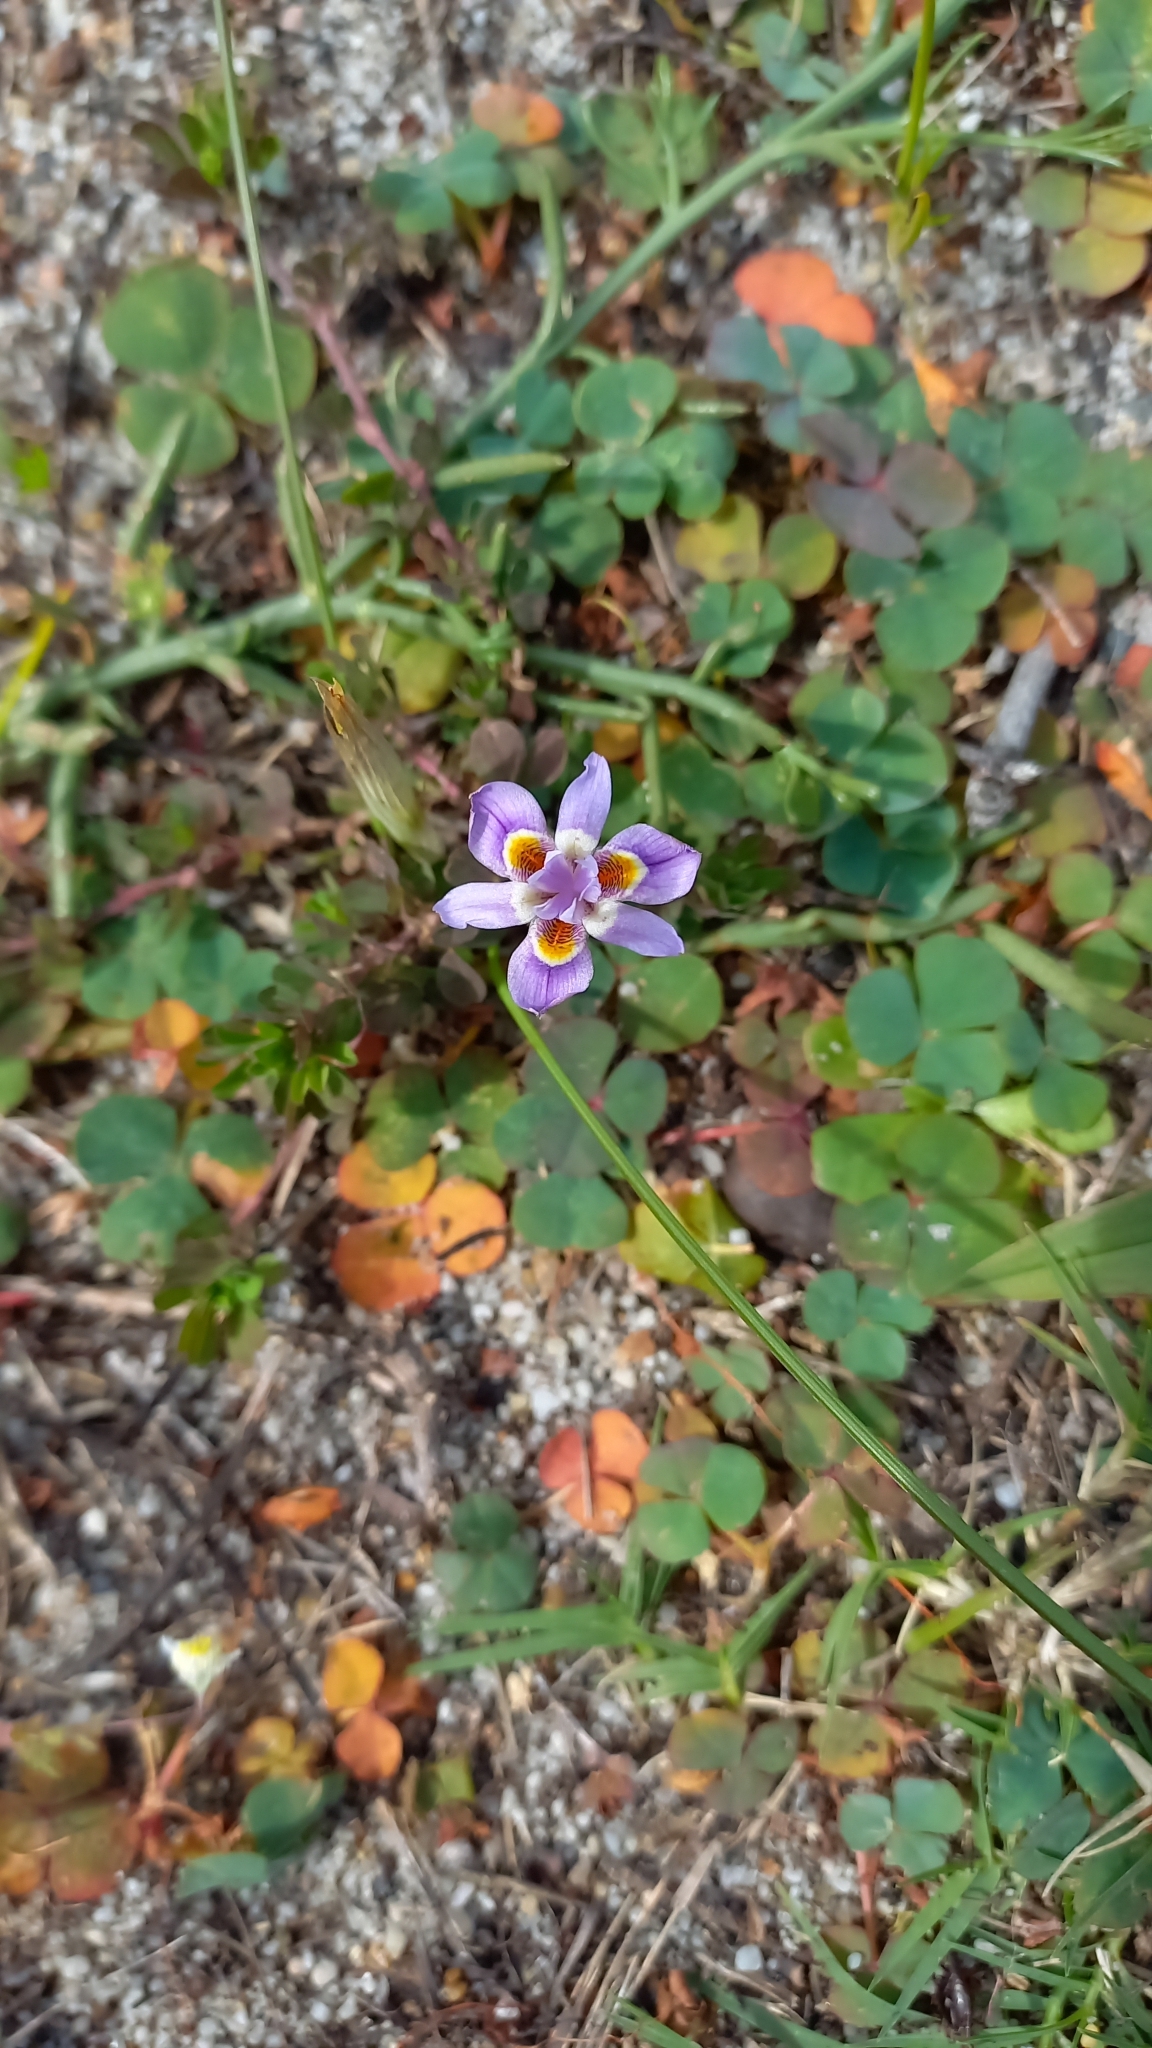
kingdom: Plantae
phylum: Tracheophyta
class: Liliopsida
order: Asparagales
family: Iridaceae
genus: Moraea
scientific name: Moraea setifolia
